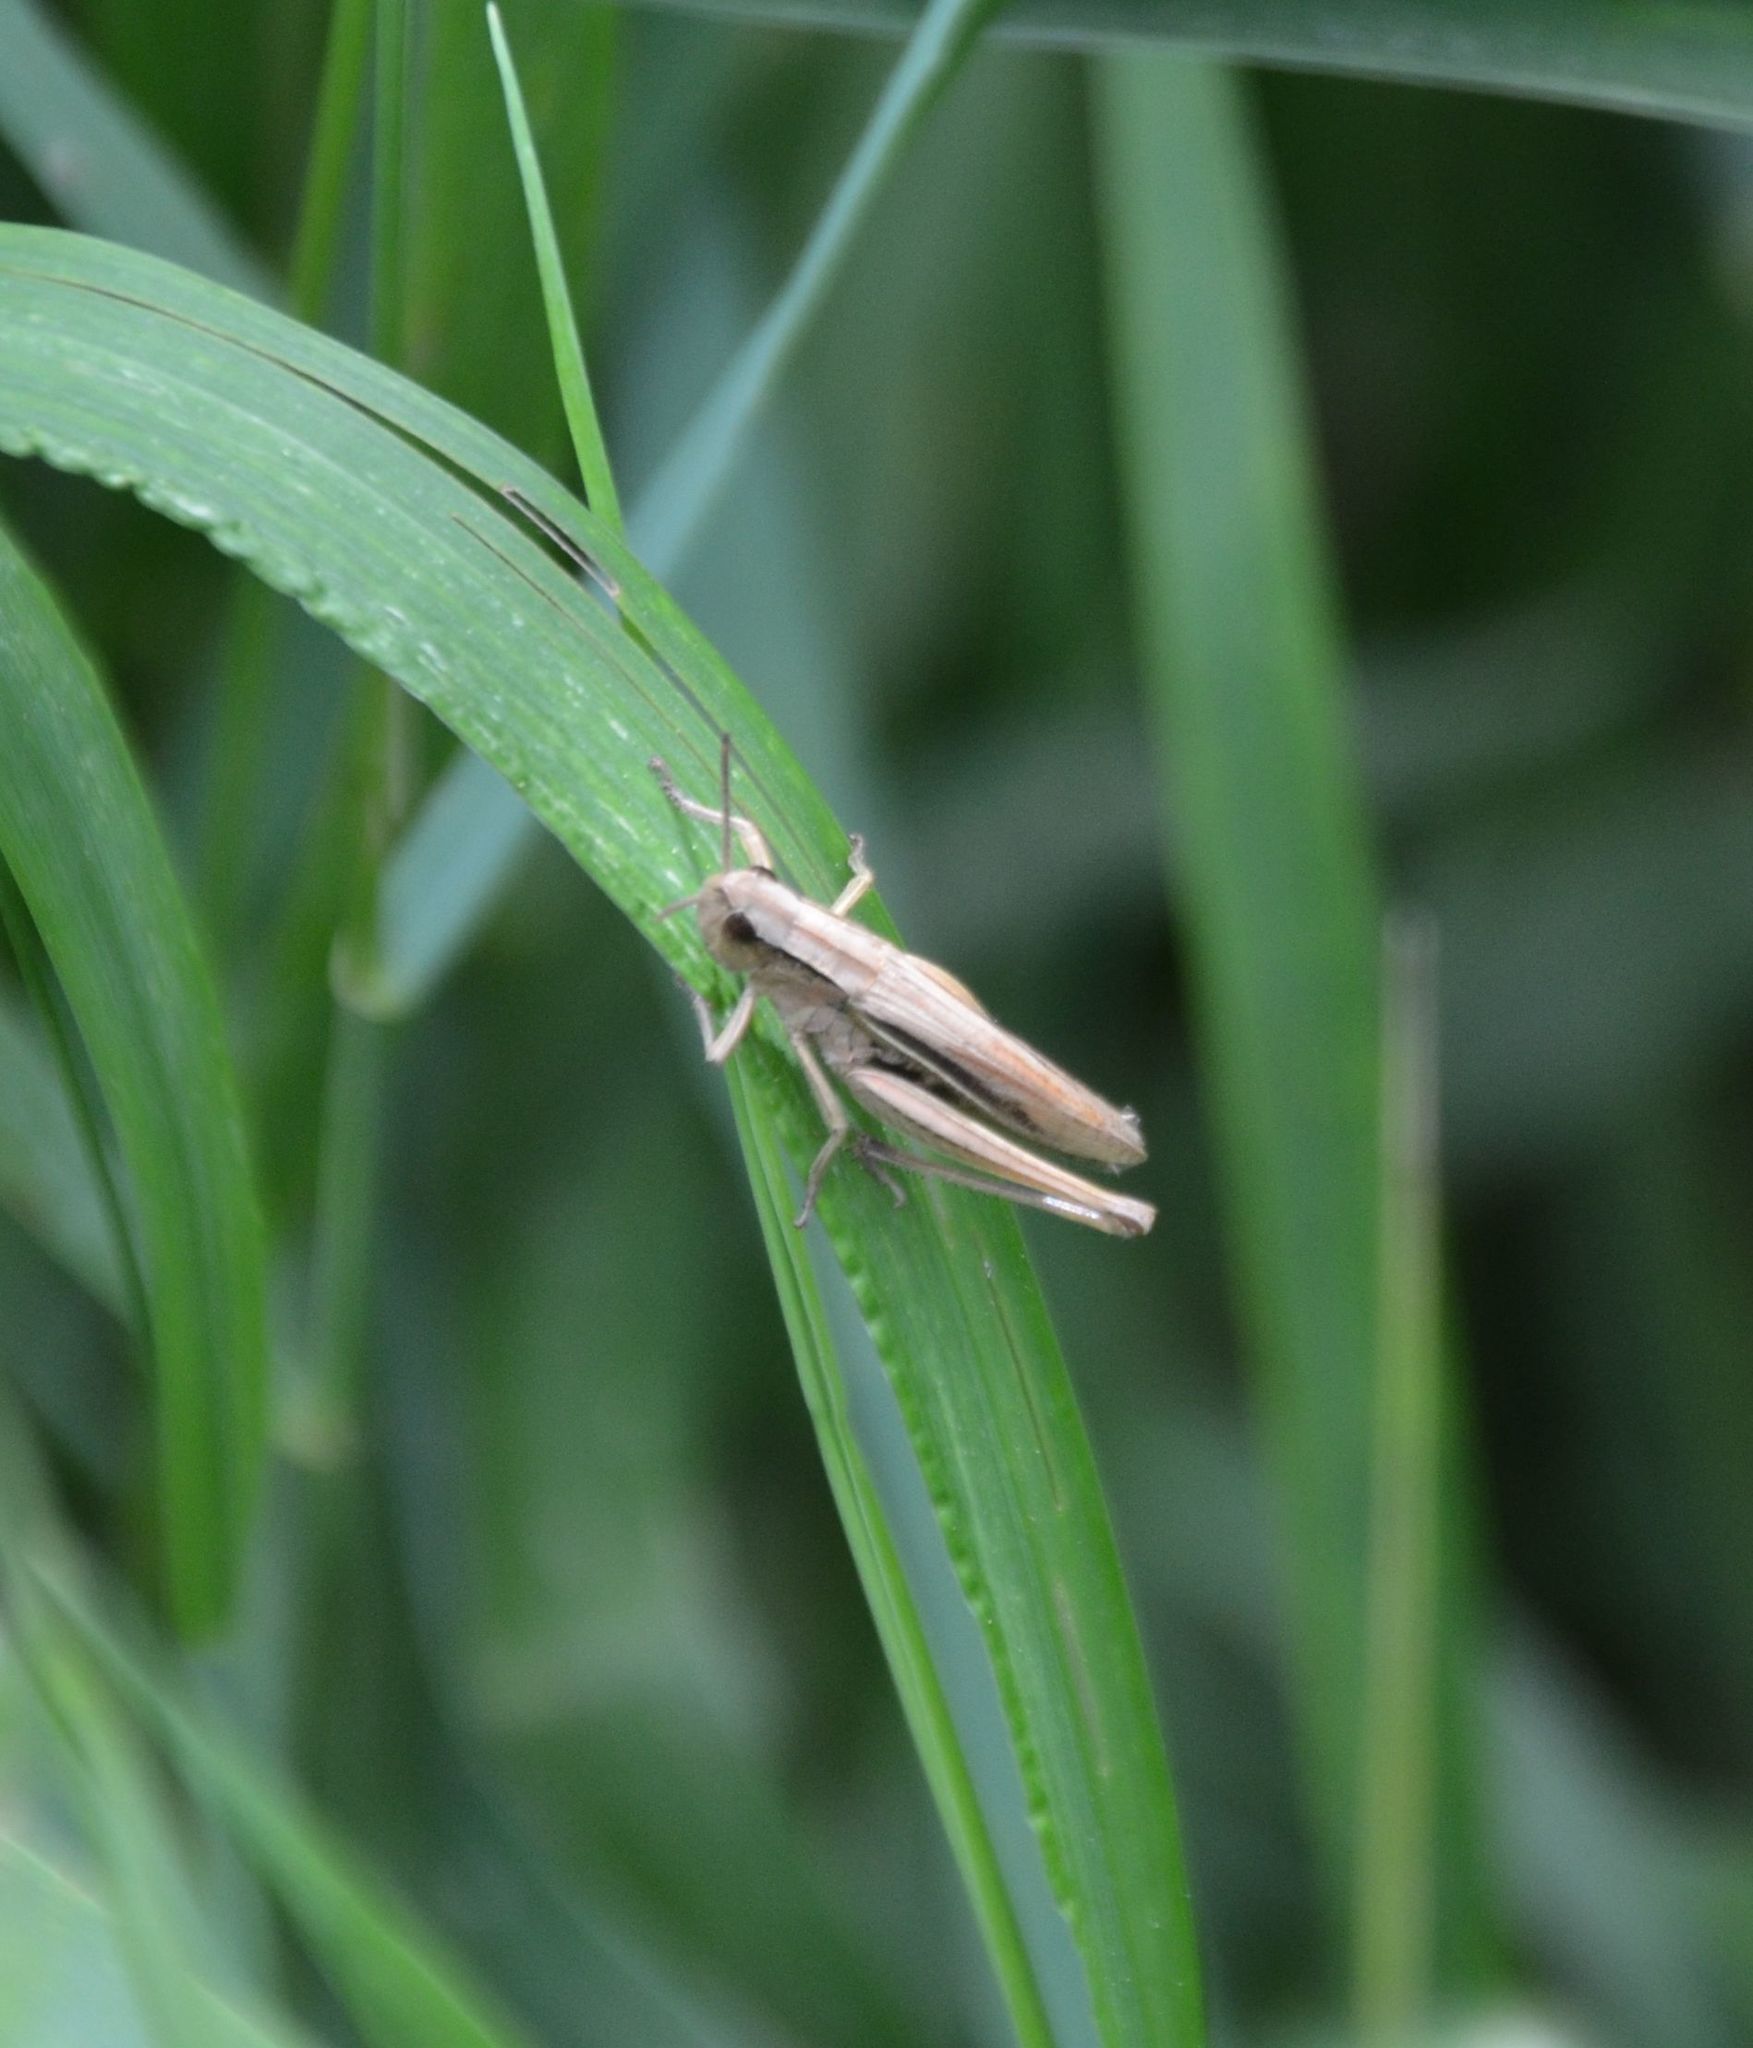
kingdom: Animalia
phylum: Arthropoda
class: Insecta
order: Orthoptera
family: Acrididae
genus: Chorthippus
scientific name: Chorthippus albomarginatus
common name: Lesser marsh grasshopper
